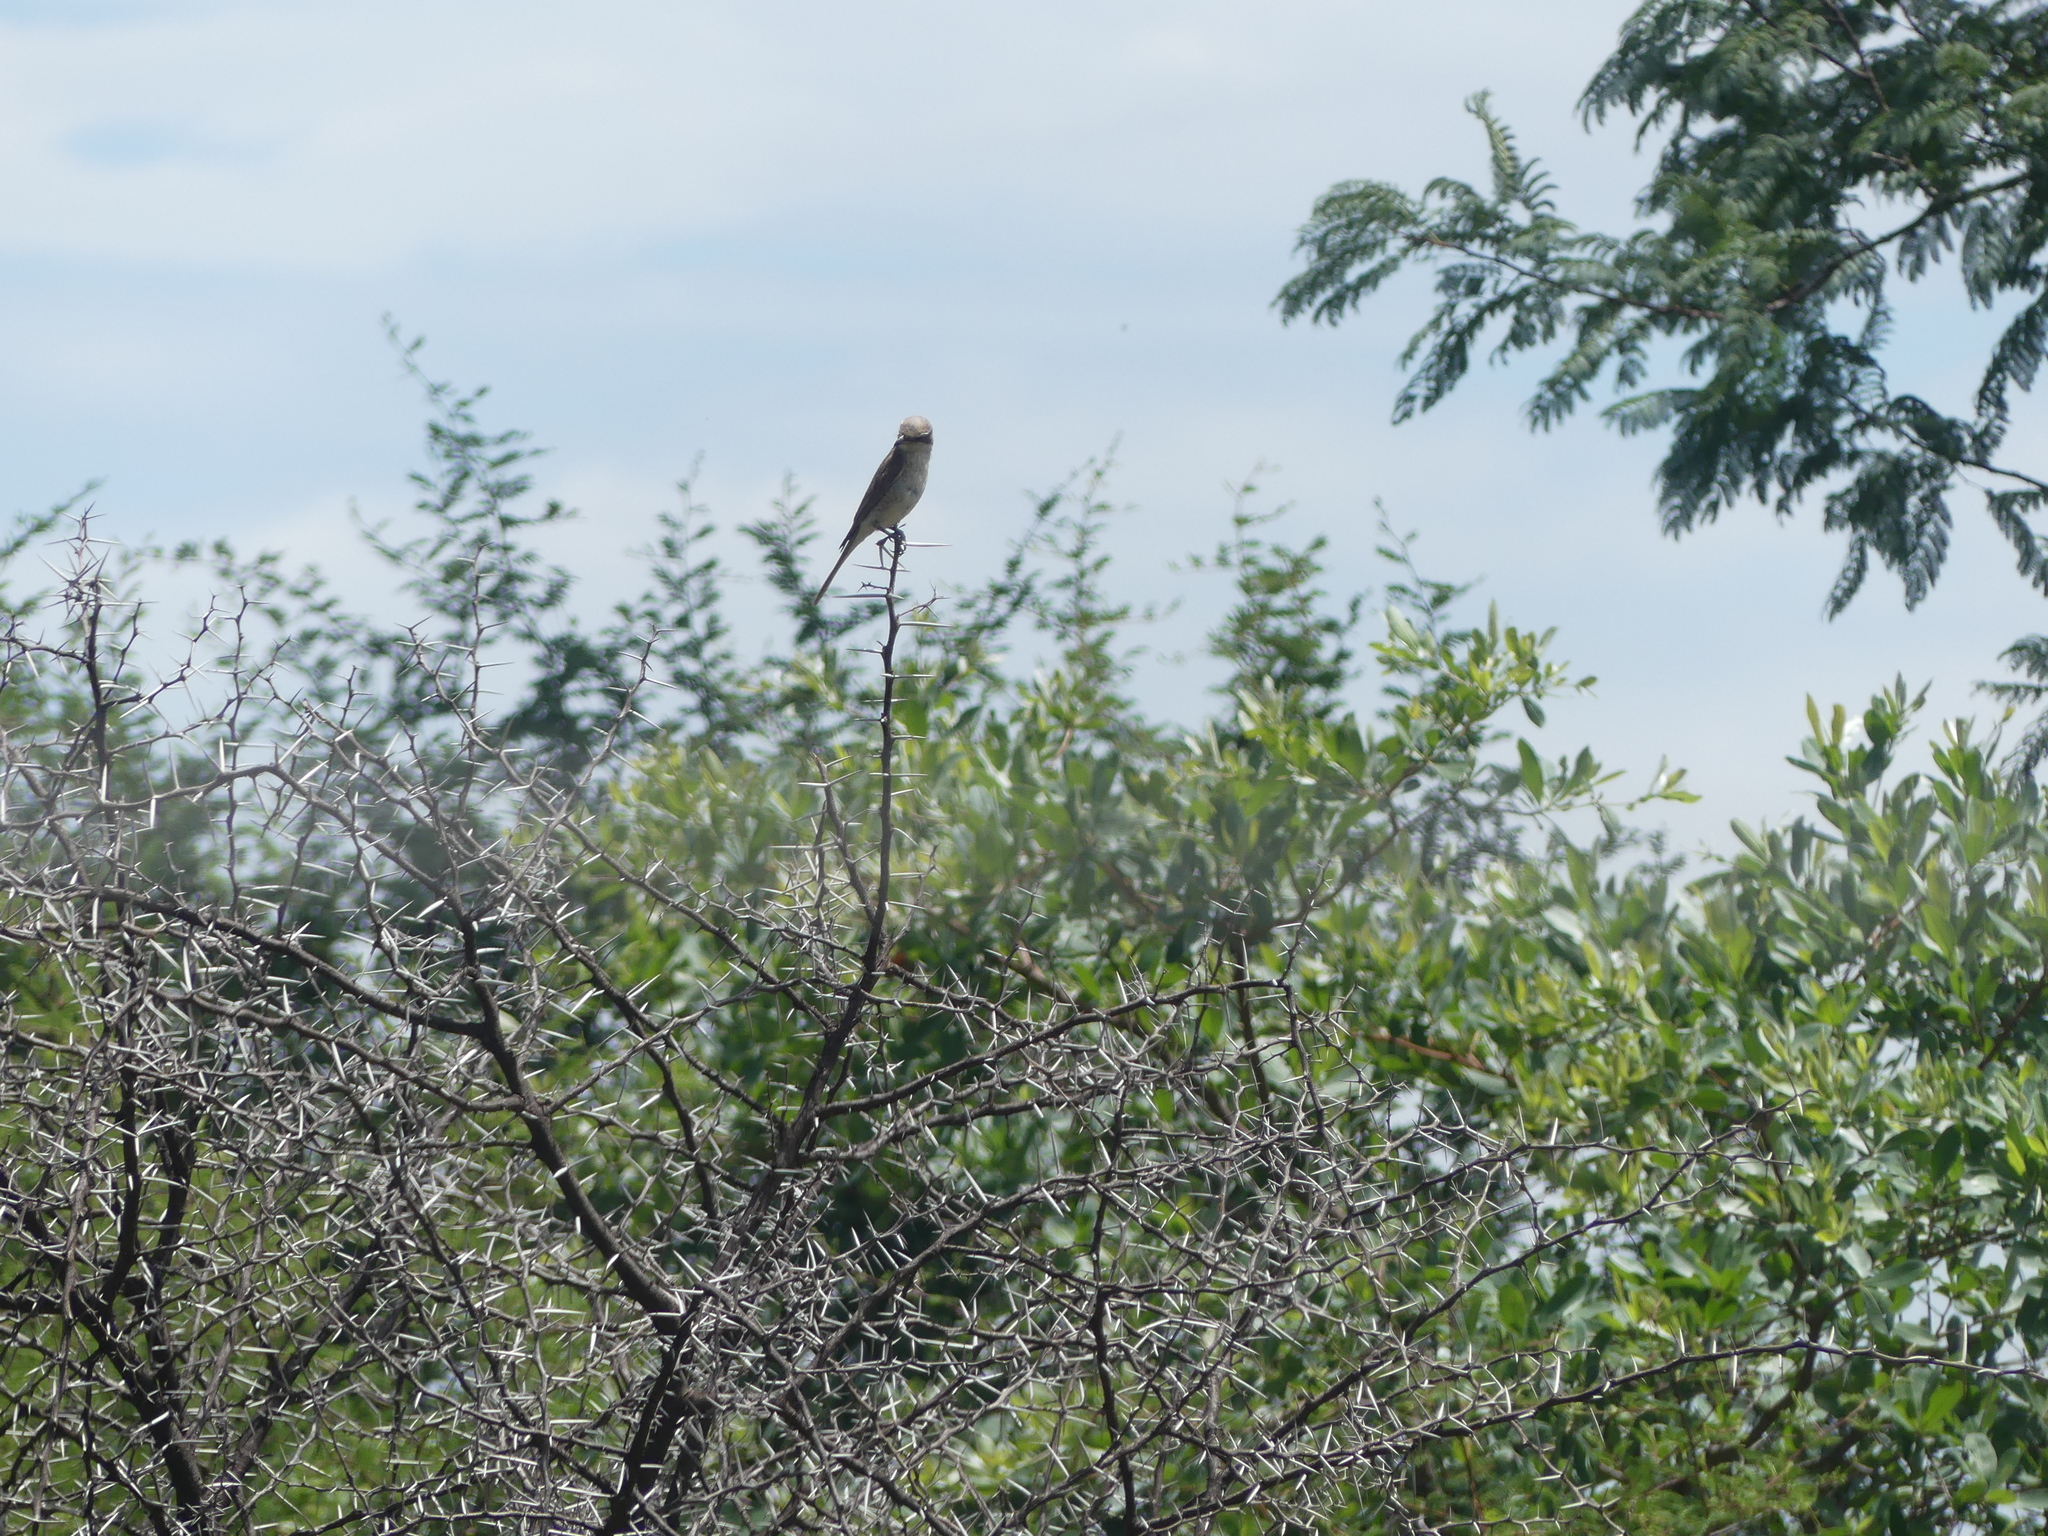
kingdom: Animalia
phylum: Chordata
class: Aves
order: Passeriformes
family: Laniidae
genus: Lanius
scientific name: Lanius collurio
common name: Red-backed shrike
